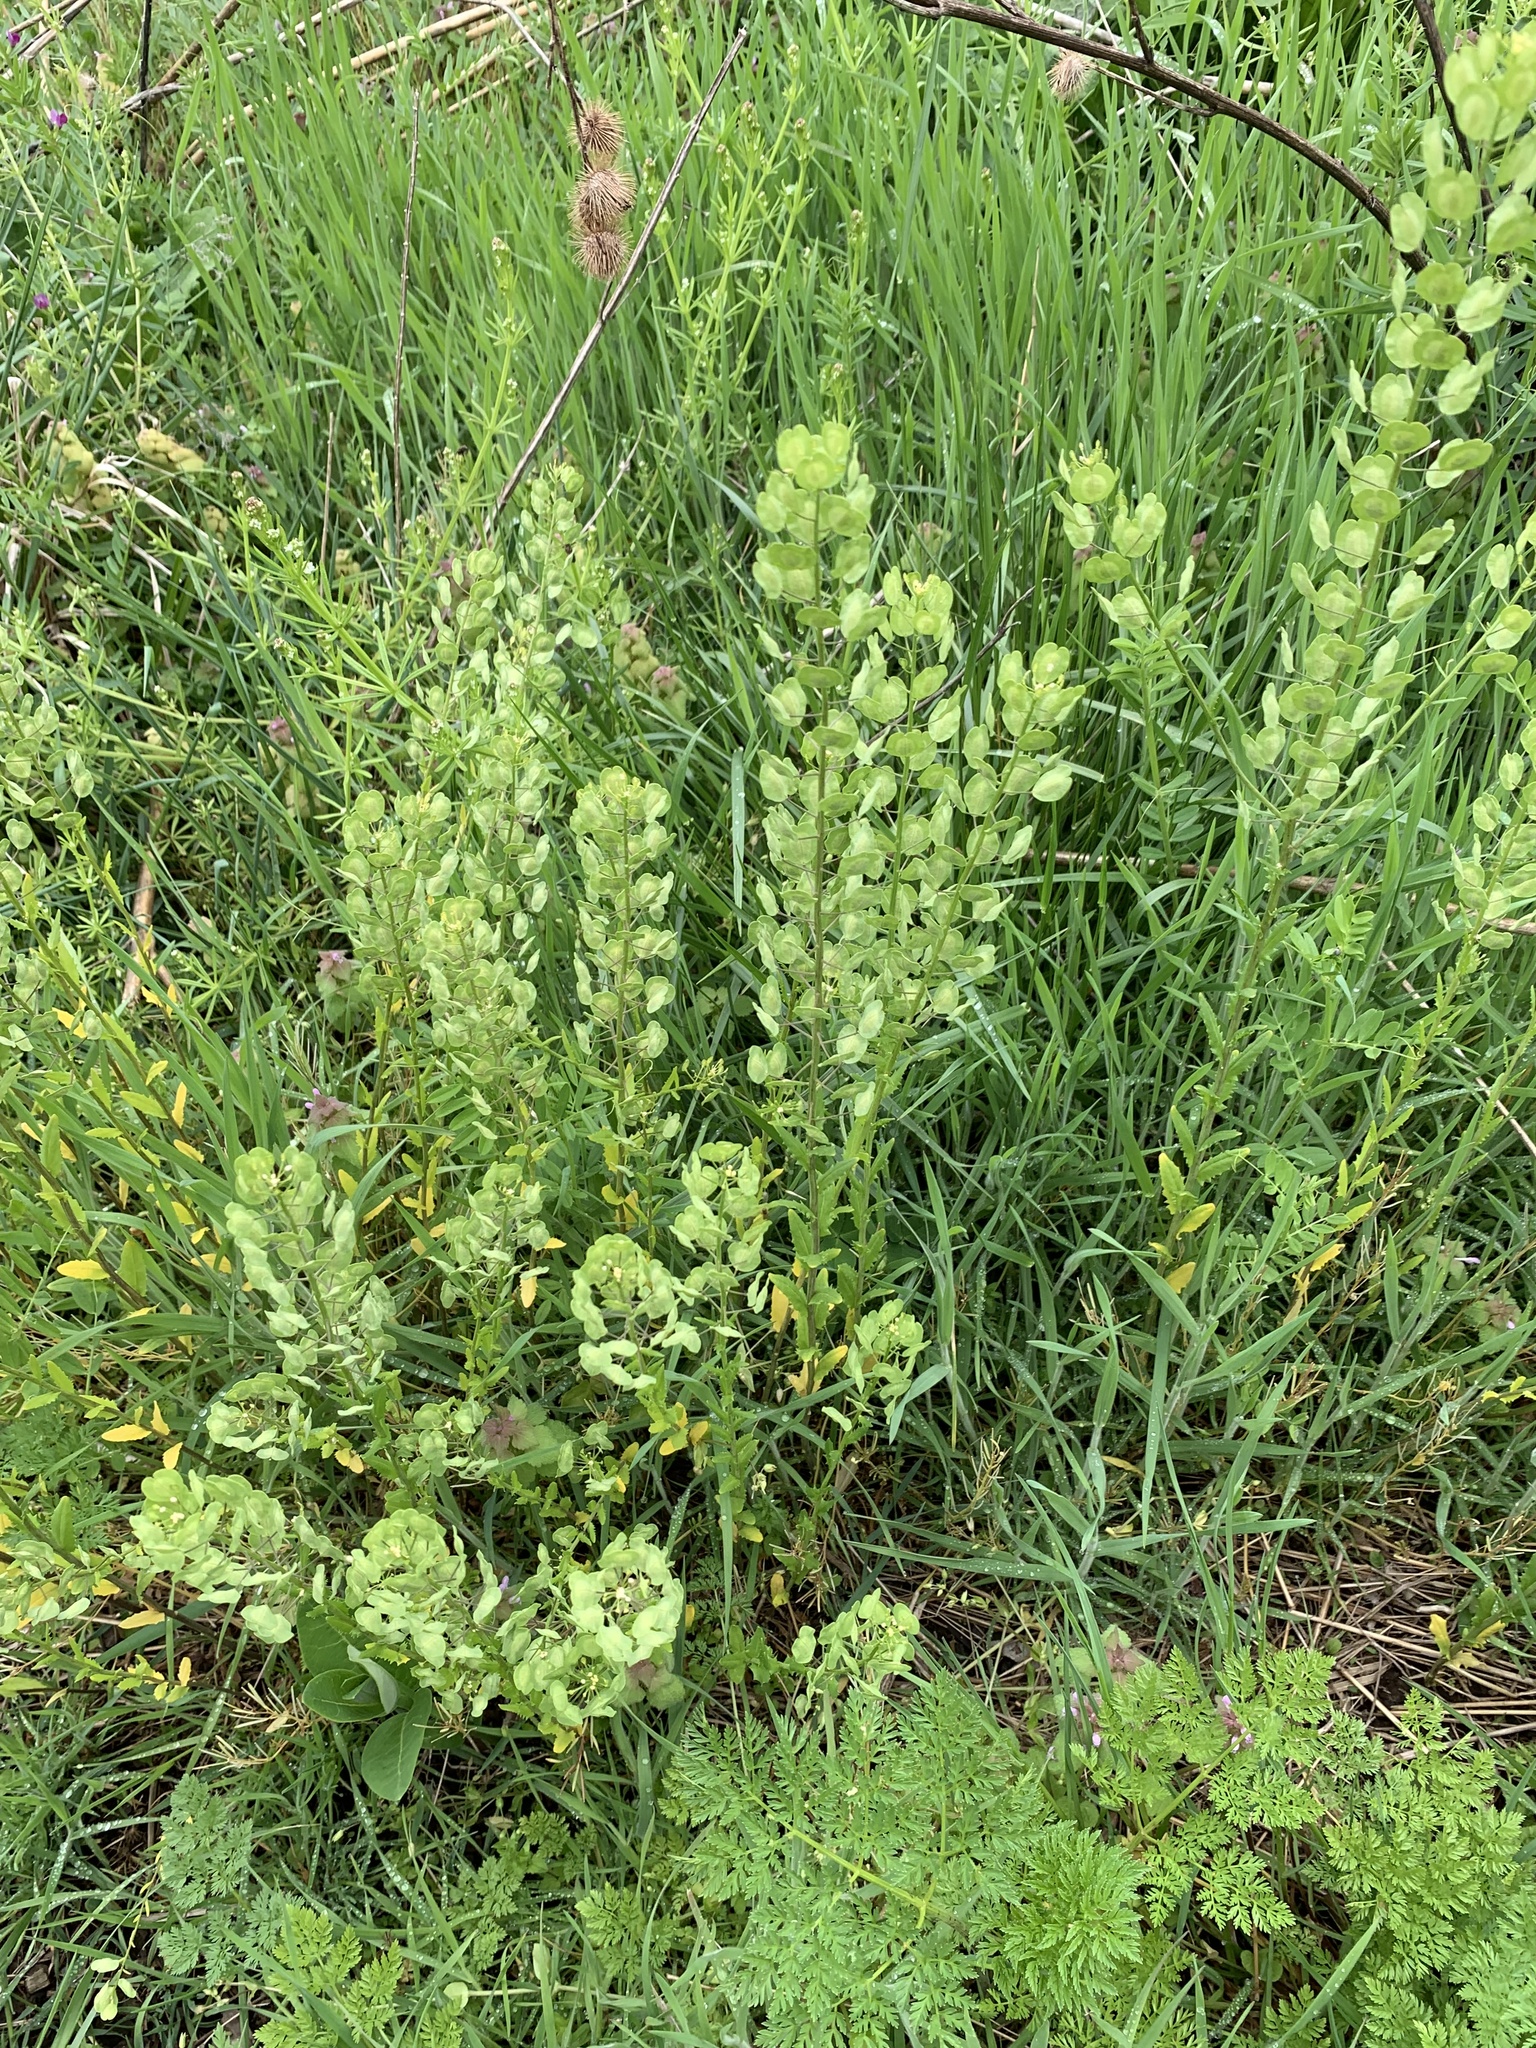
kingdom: Plantae
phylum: Tracheophyta
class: Magnoliopsida
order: Brassicales
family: Brassicaceae
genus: Thlaspi
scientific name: Thlaspi arvense
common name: Field pennycress
